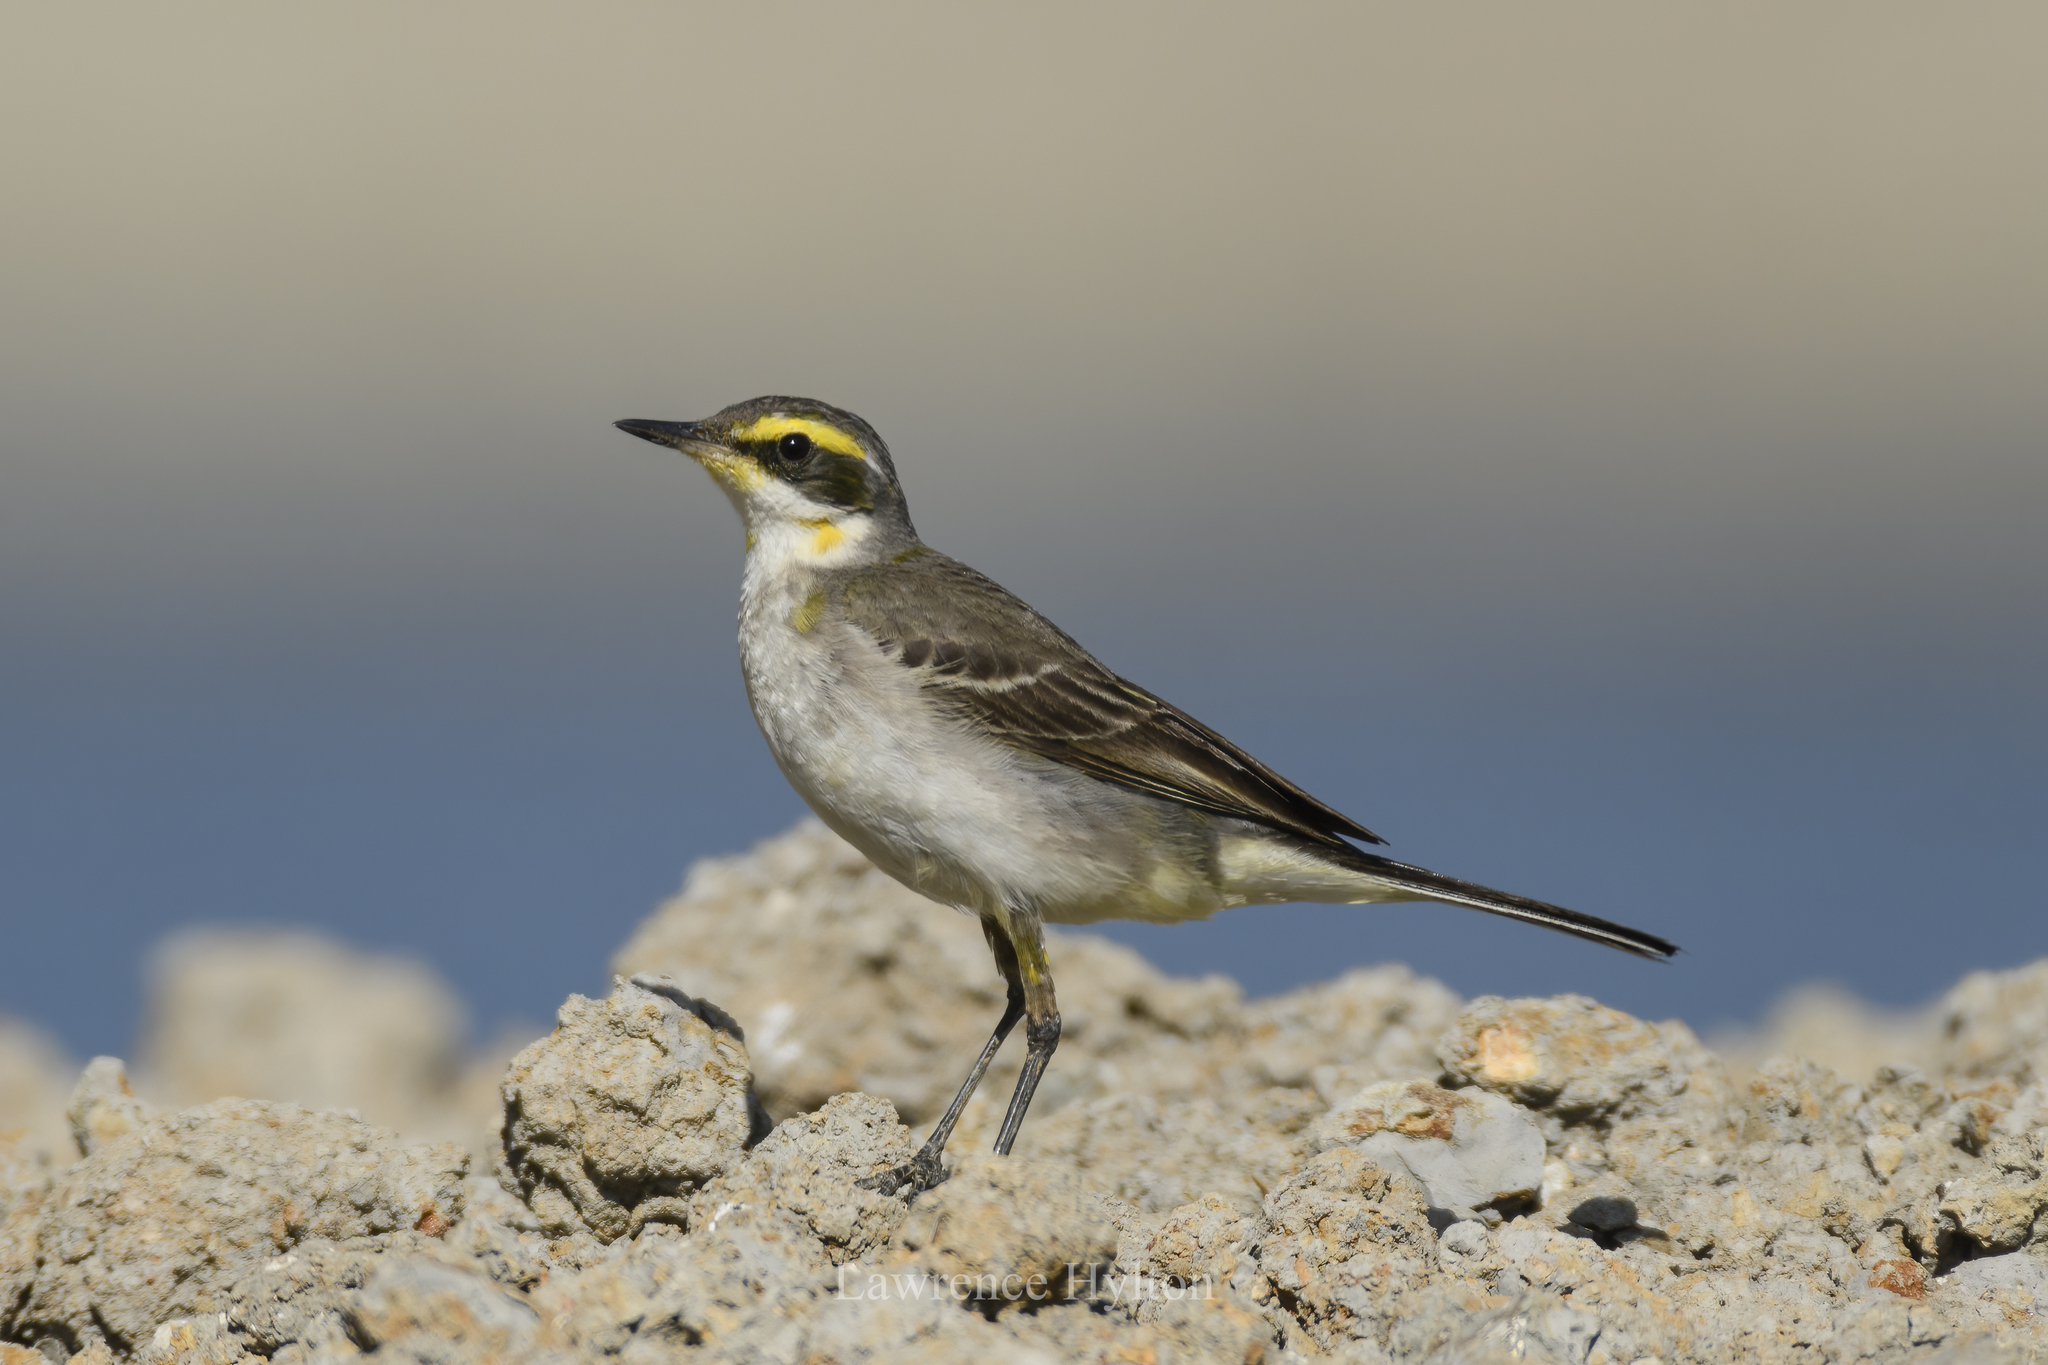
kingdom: Animalia
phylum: Chordata
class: Aves
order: Passeriformes
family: Motacillidae
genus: Motacilla
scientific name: Motacilla tschutschensis
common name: Eastern yellow wagtail
